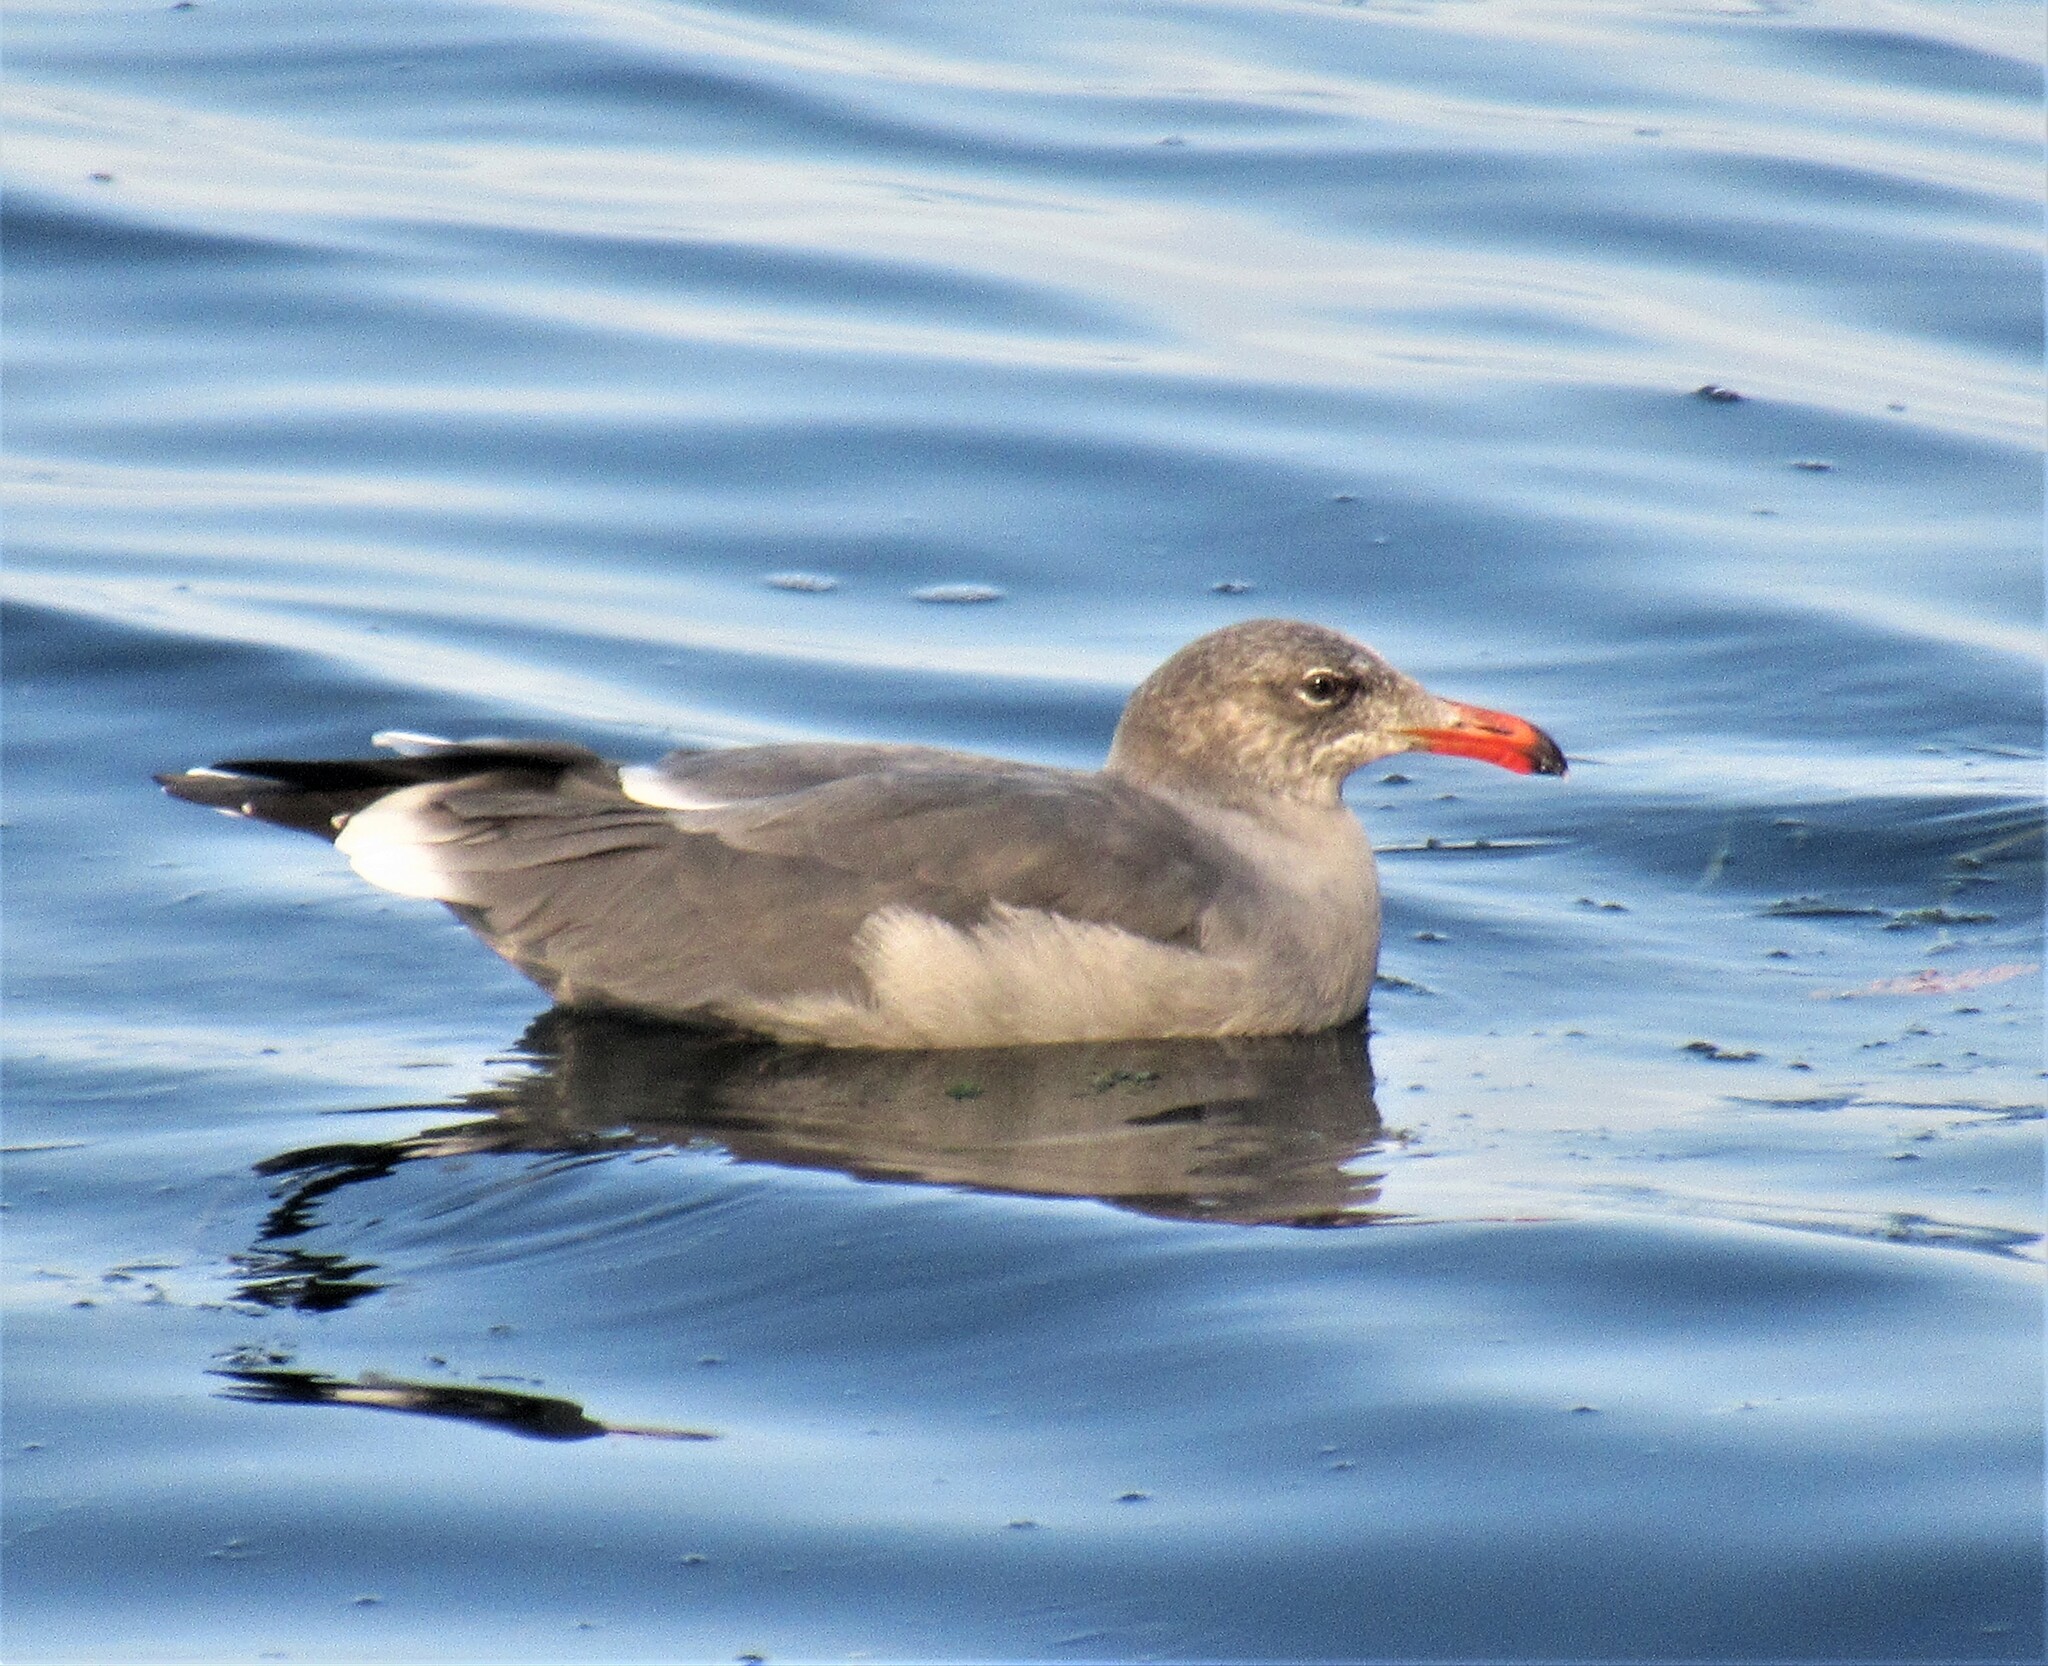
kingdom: Animalia
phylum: Chordata
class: Aves
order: Charadriiformes
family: Laridae
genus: Larus
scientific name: Larus heermanni
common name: Heermann's gull
